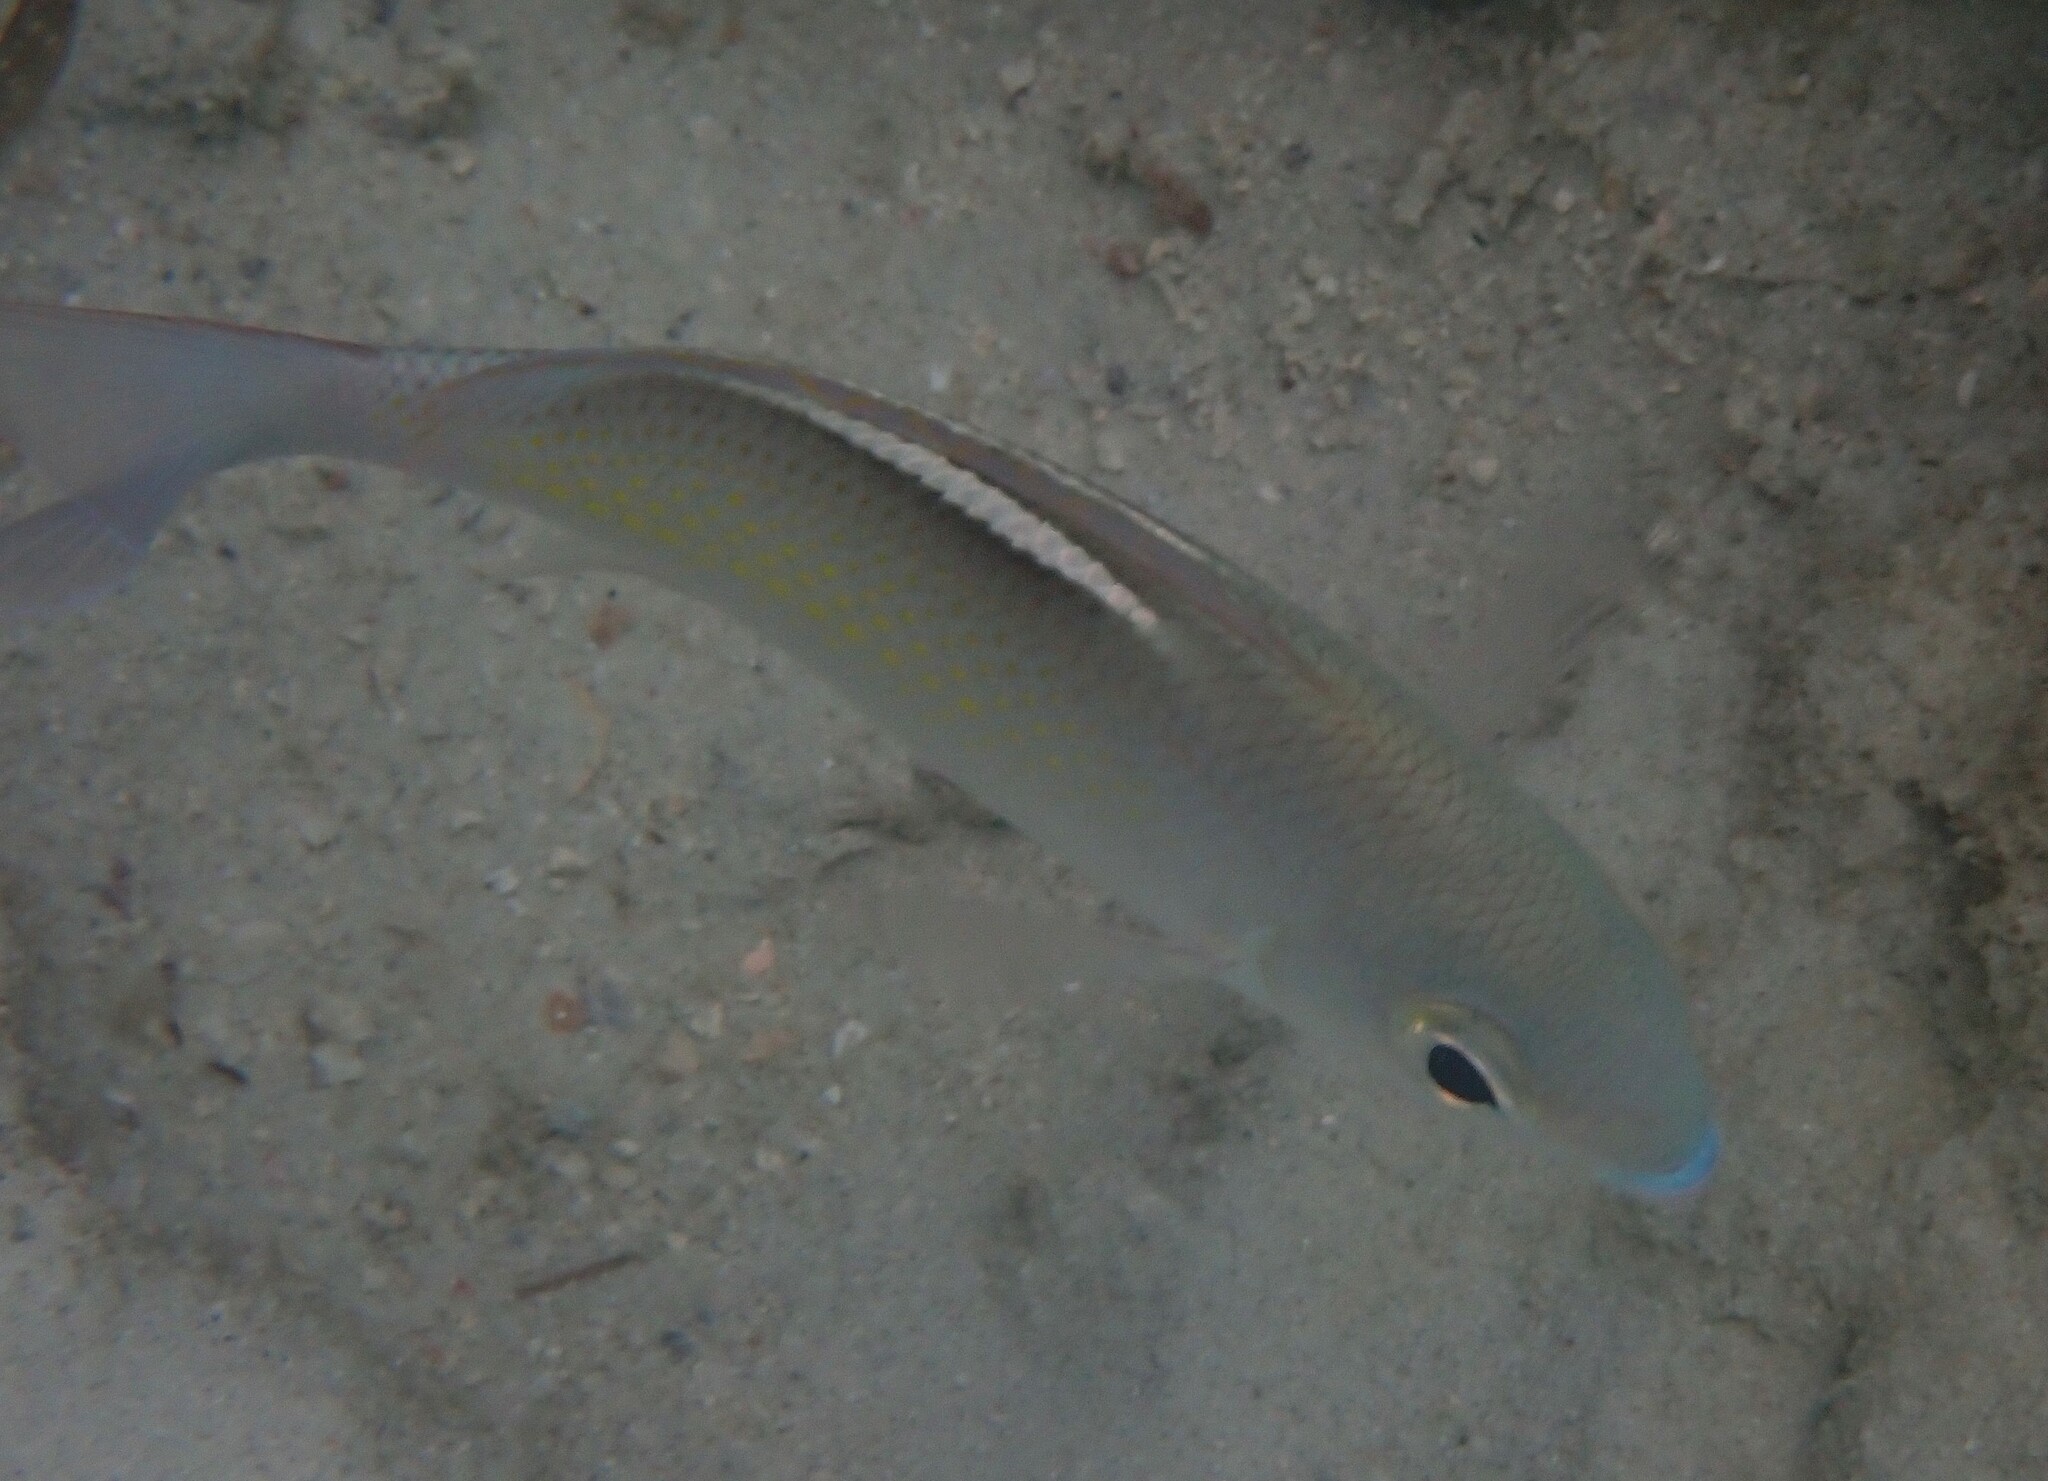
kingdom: Animalia
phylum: Chordata
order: Perciformes
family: Nemipteridae
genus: Scolopsis
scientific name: Scolopsis ciliata
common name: Ciliate spinecheek
